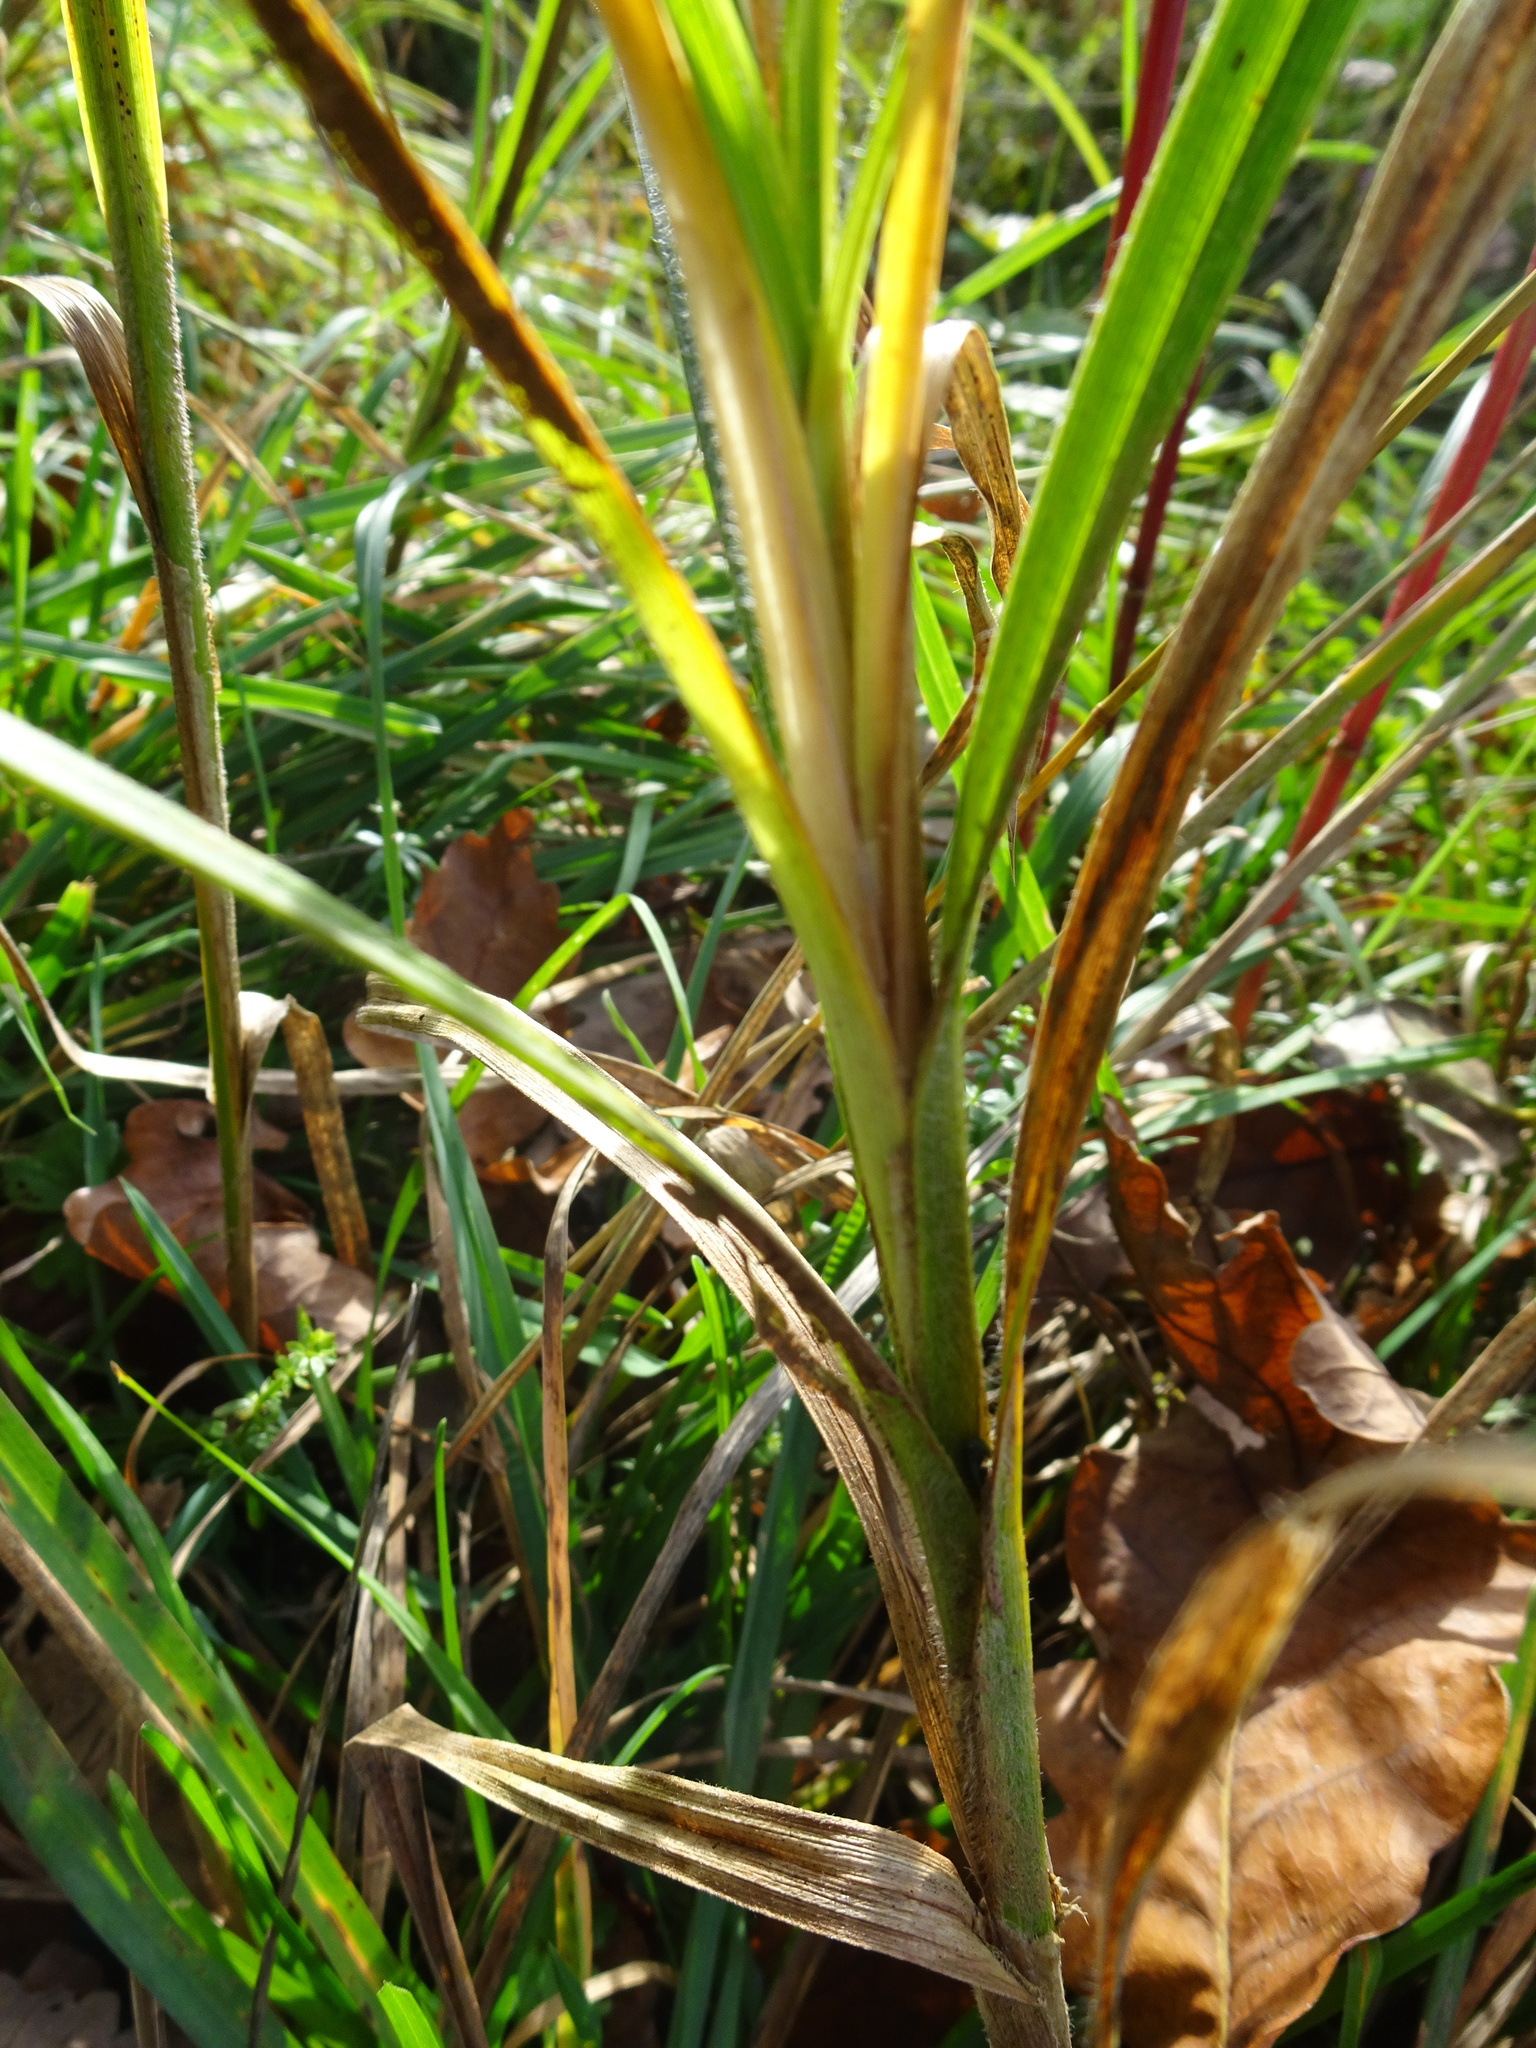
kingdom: Plantae
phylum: Tracheophyta
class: Liliopsida
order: Poales
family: Cyperaceae
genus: Carex
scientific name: Carex hirta
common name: Hairy sedge
